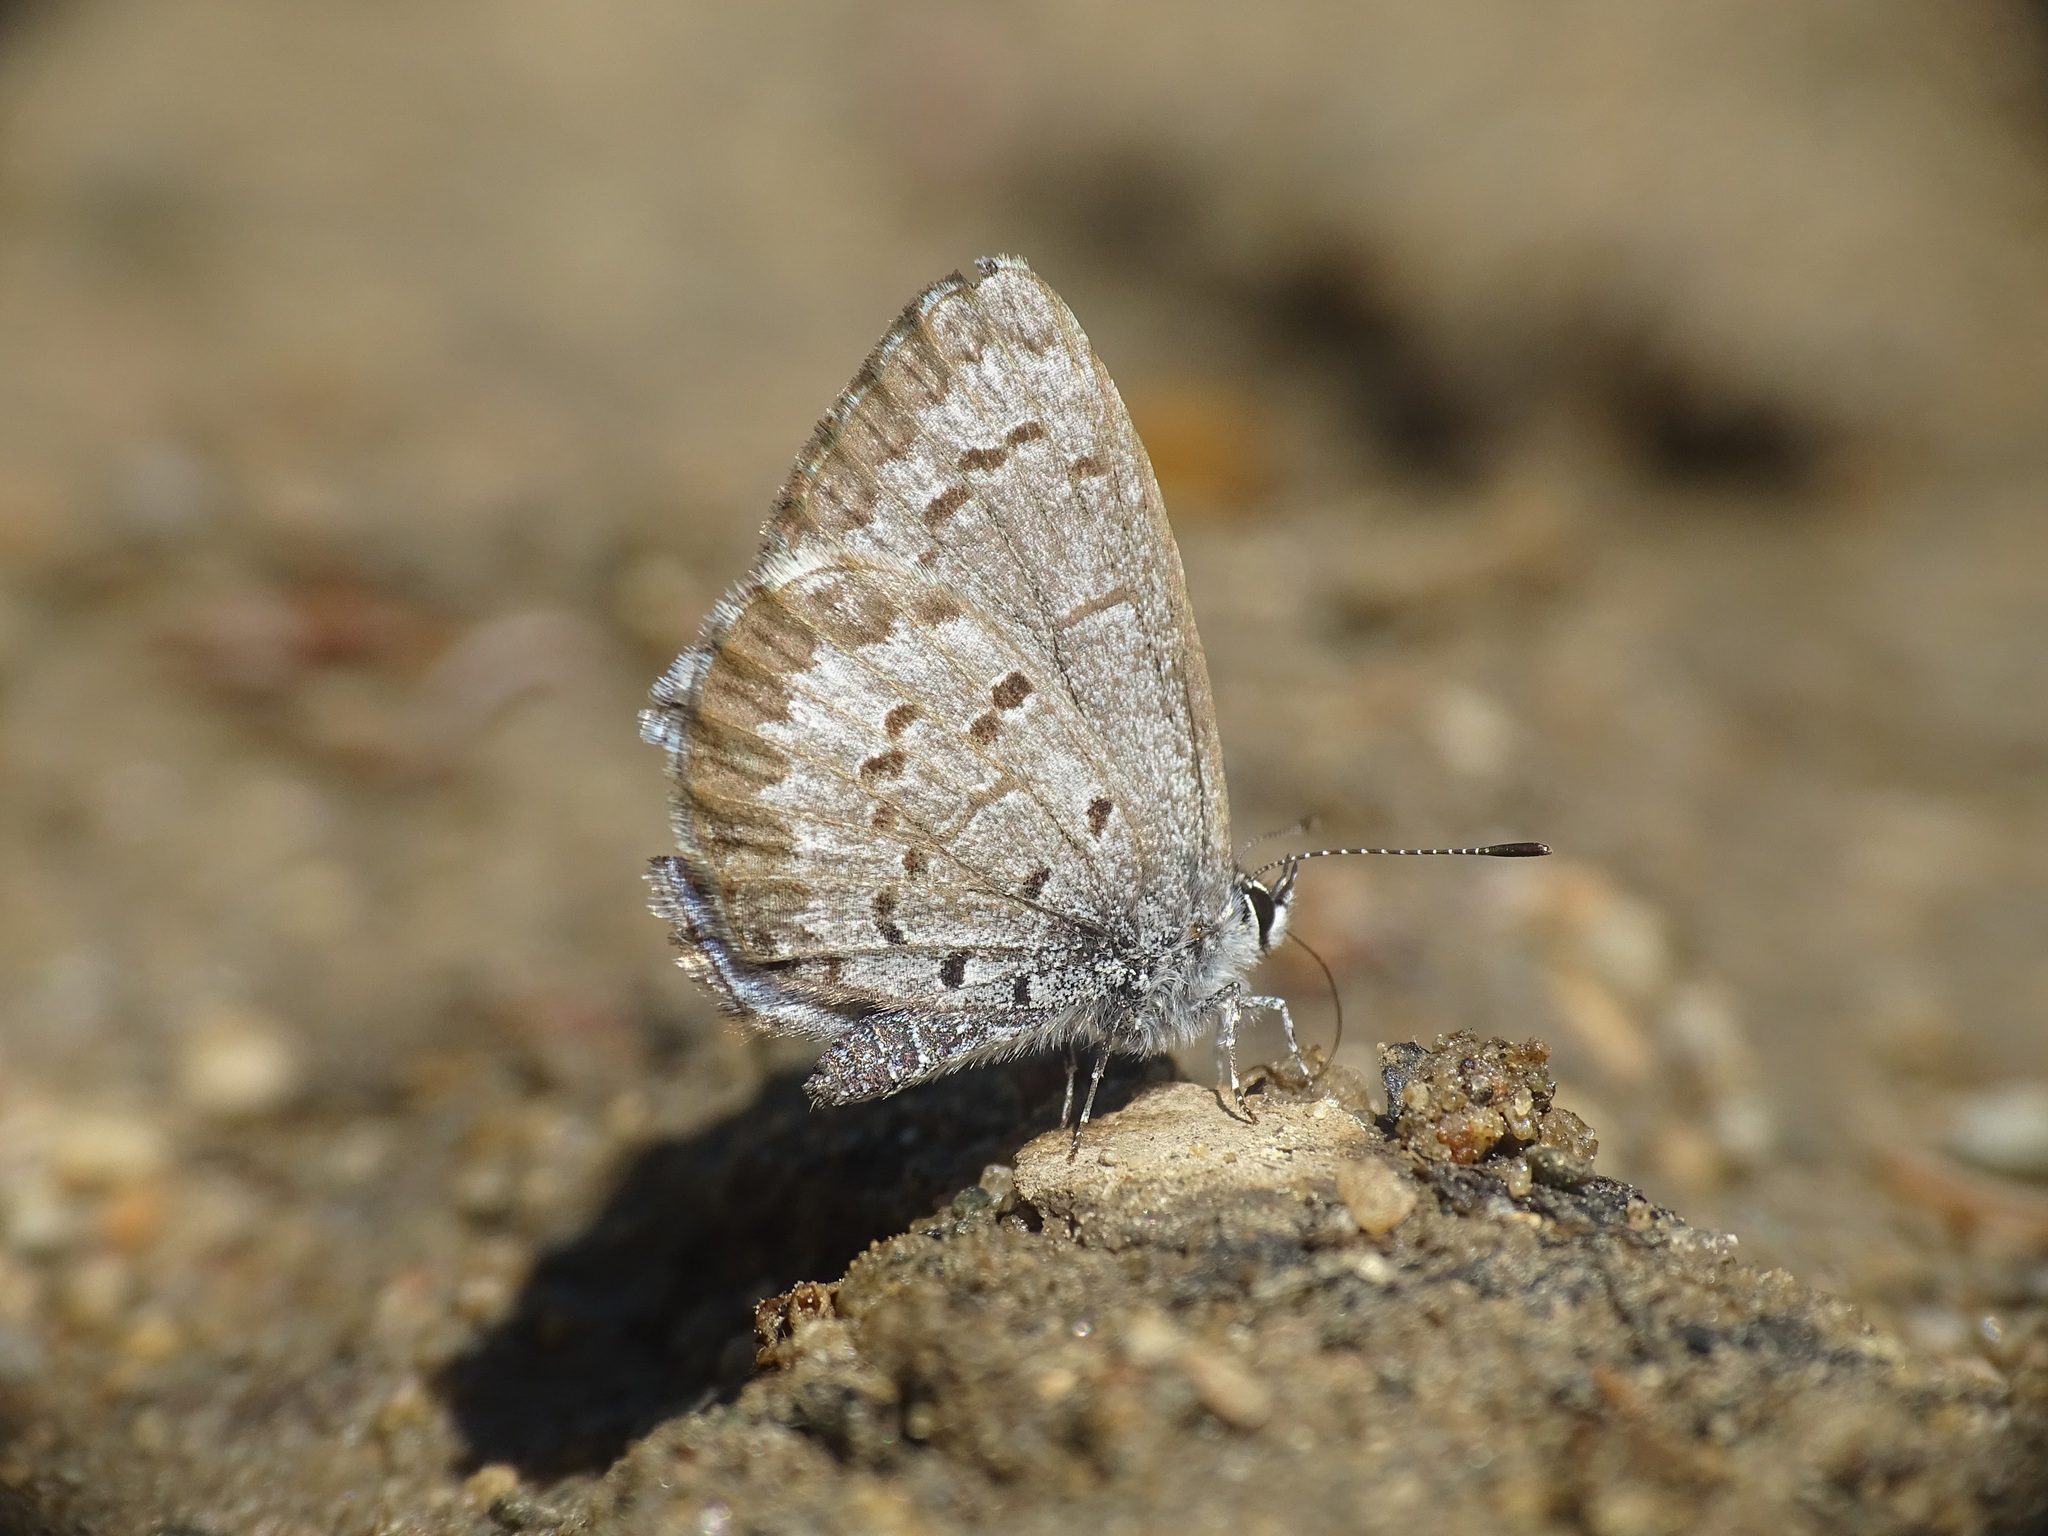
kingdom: Animalia
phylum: Arthropoda
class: Insecta
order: Lepidoptera
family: Lycaenidae
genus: Celastrina
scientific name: Celastrina lucia
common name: Lucia azure
